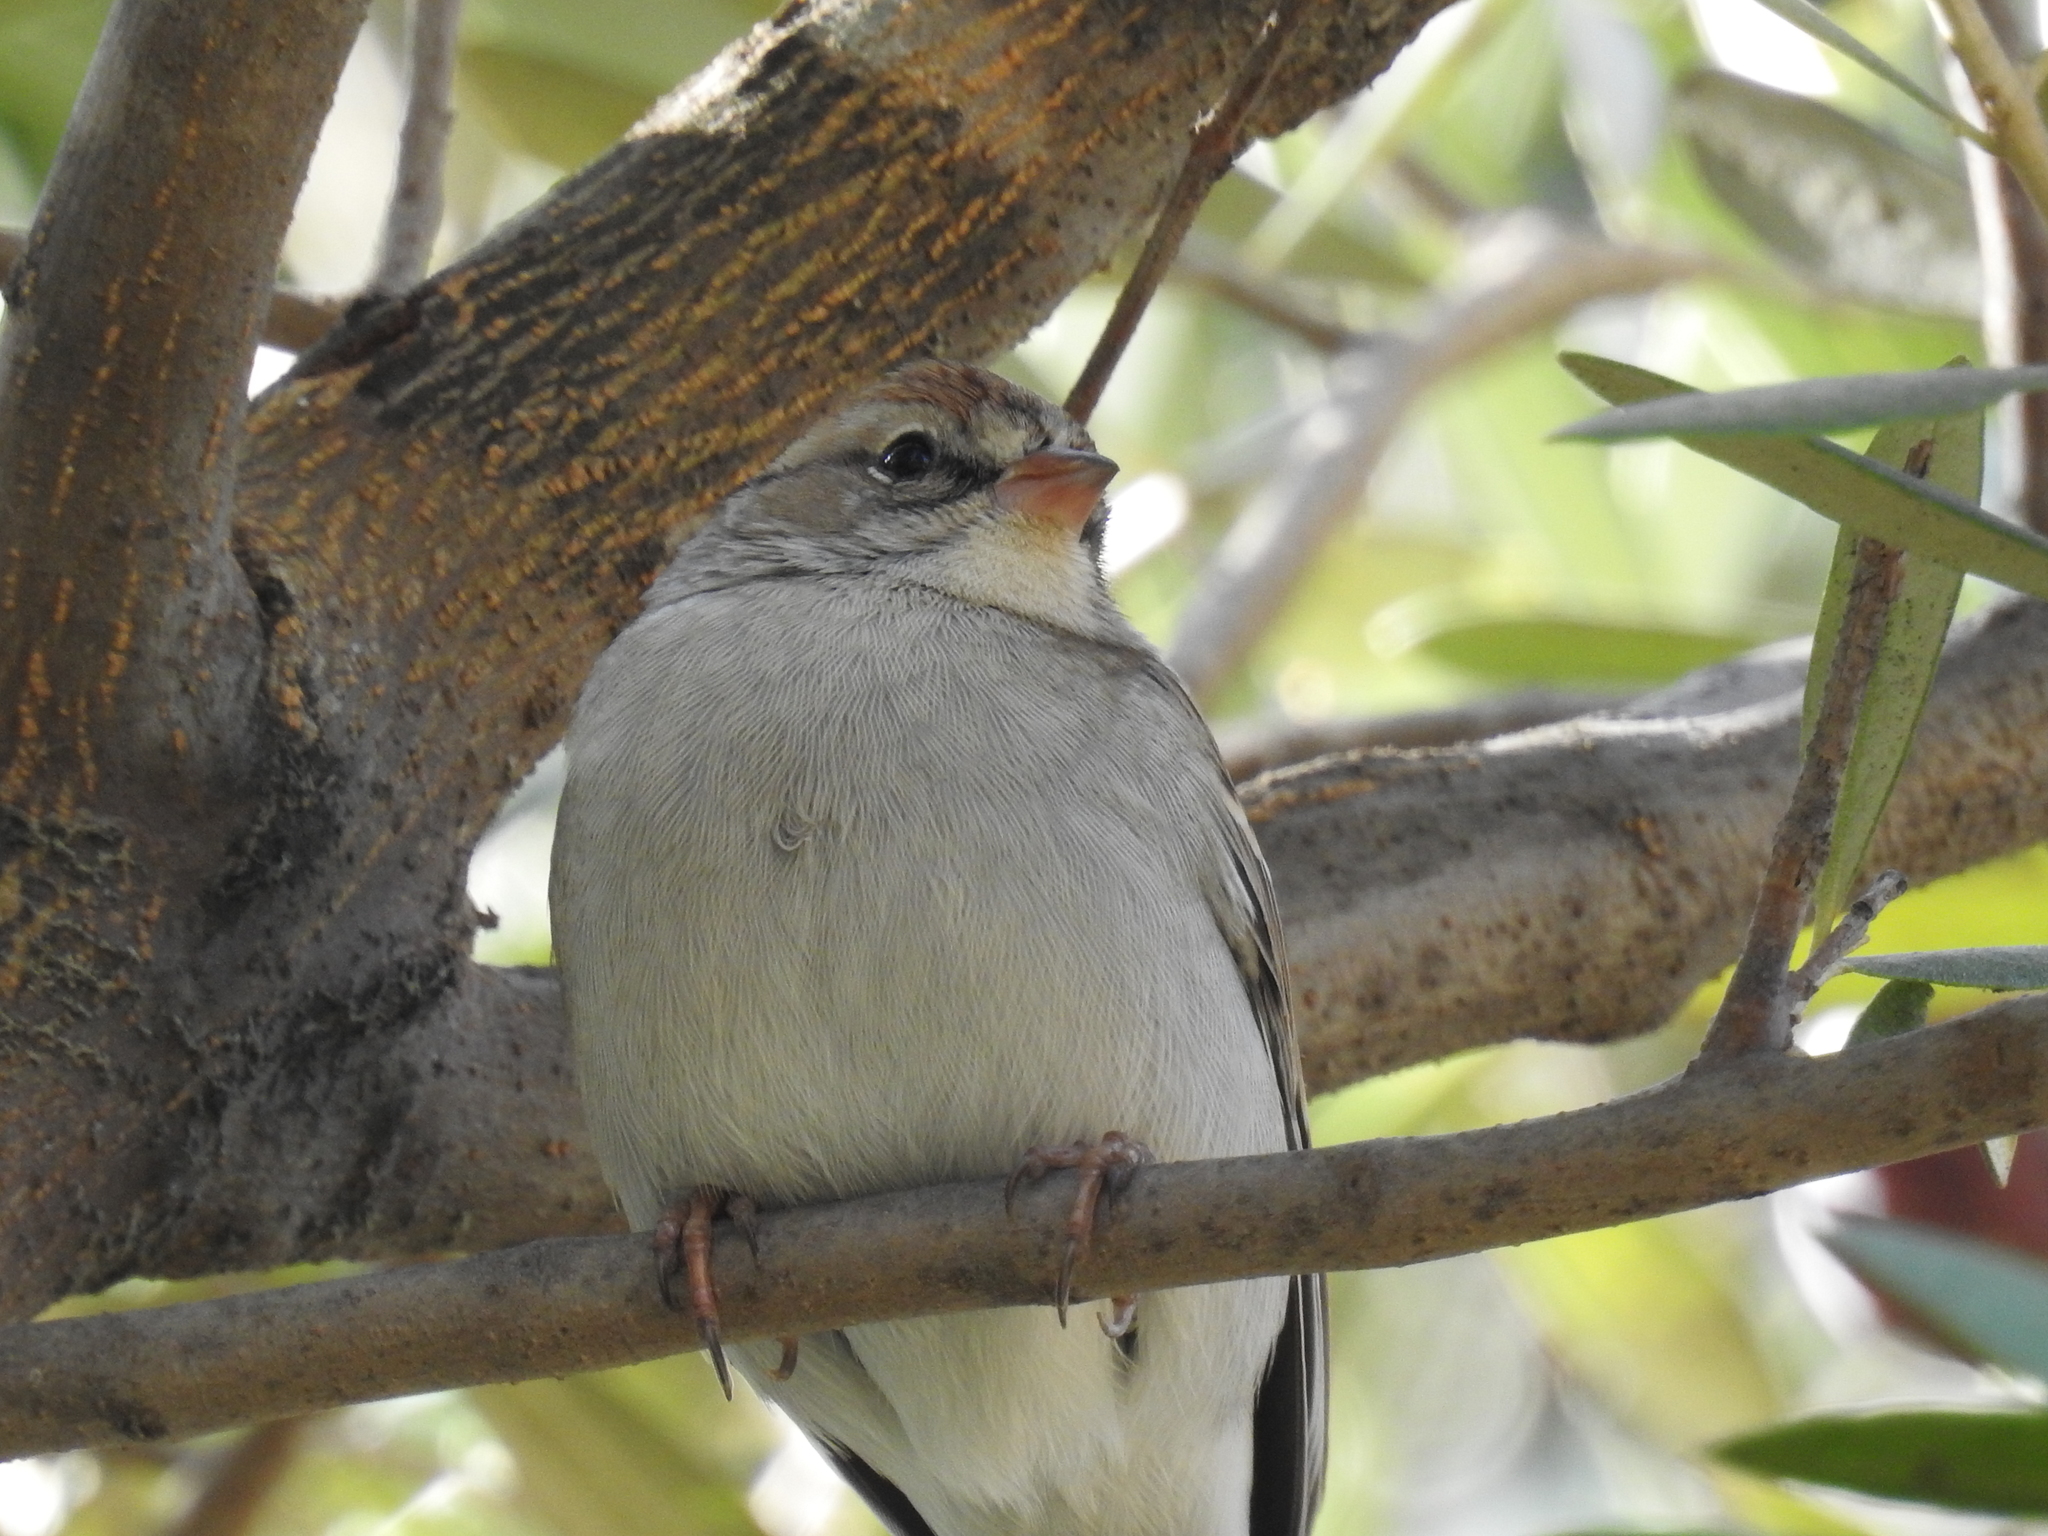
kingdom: Animalia
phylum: Chordata
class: Aves
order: Passeriformes
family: Passerellidae
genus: Spizella
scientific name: Spizella passerina
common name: Chipping sparrow
